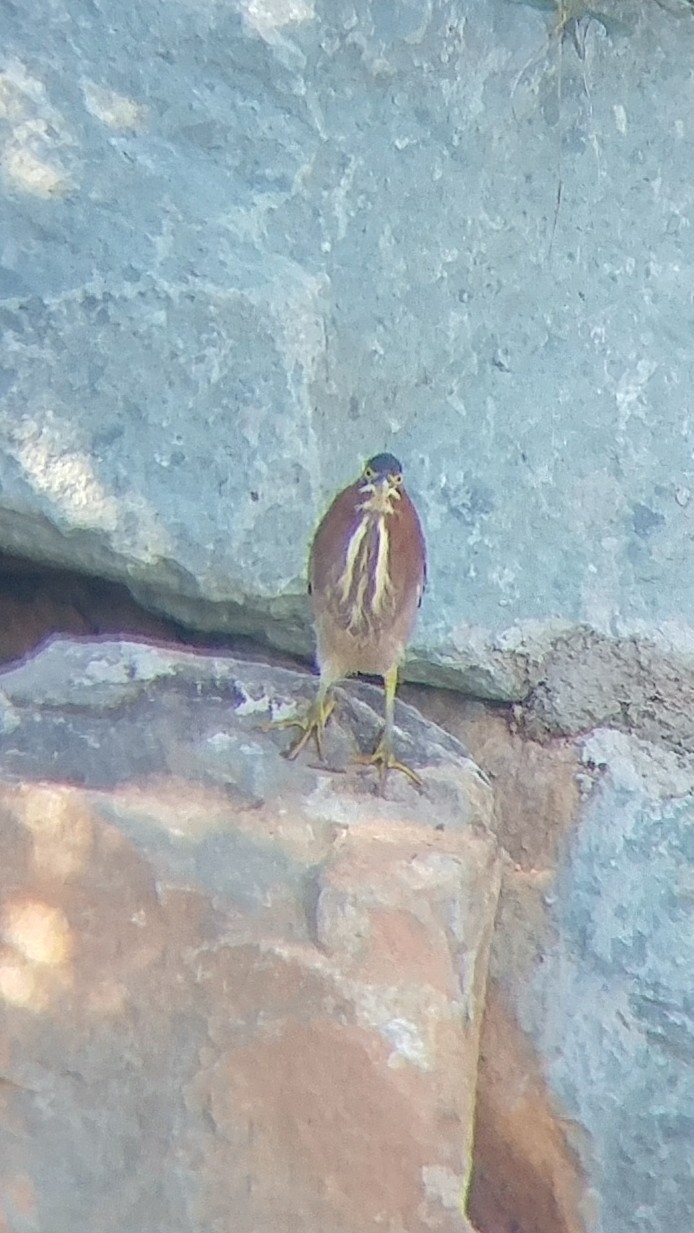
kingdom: Animalia
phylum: Chordata
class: Aves
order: Pelecaniformes
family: Ardeidae
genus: Butorides
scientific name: Butorides virescens
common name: Green heron
